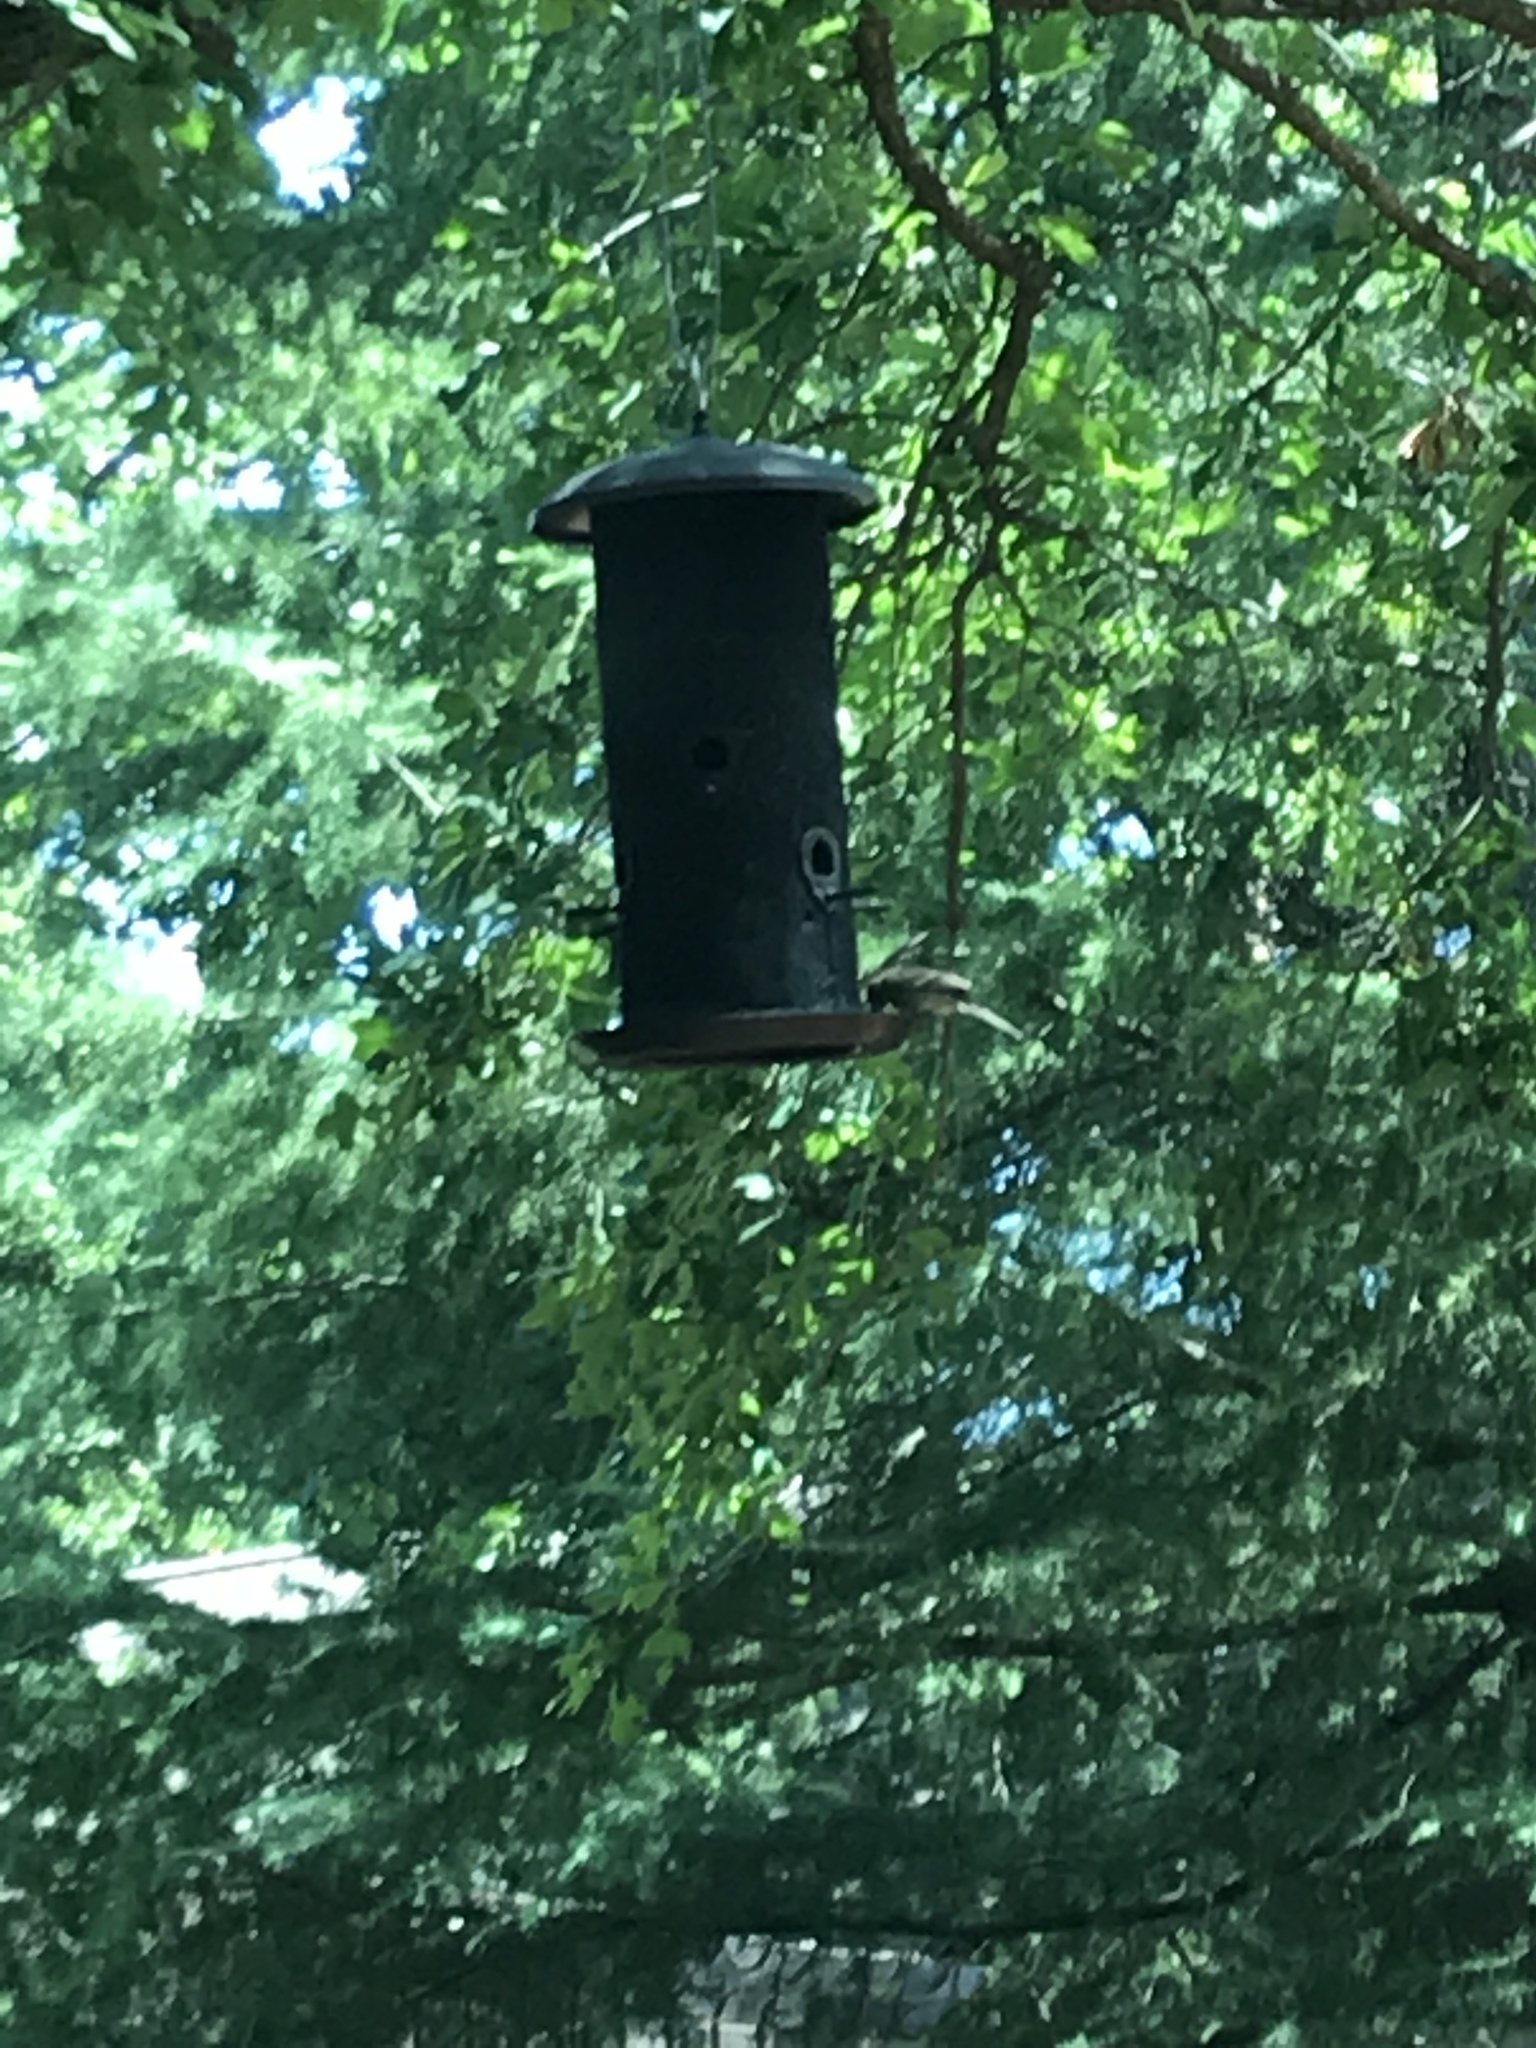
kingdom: Animalia
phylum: Chordata
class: Aves
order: Passeriformes
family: Fringillidae
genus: Haemorhous
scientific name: Haemorhous mexicanus
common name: House finch
